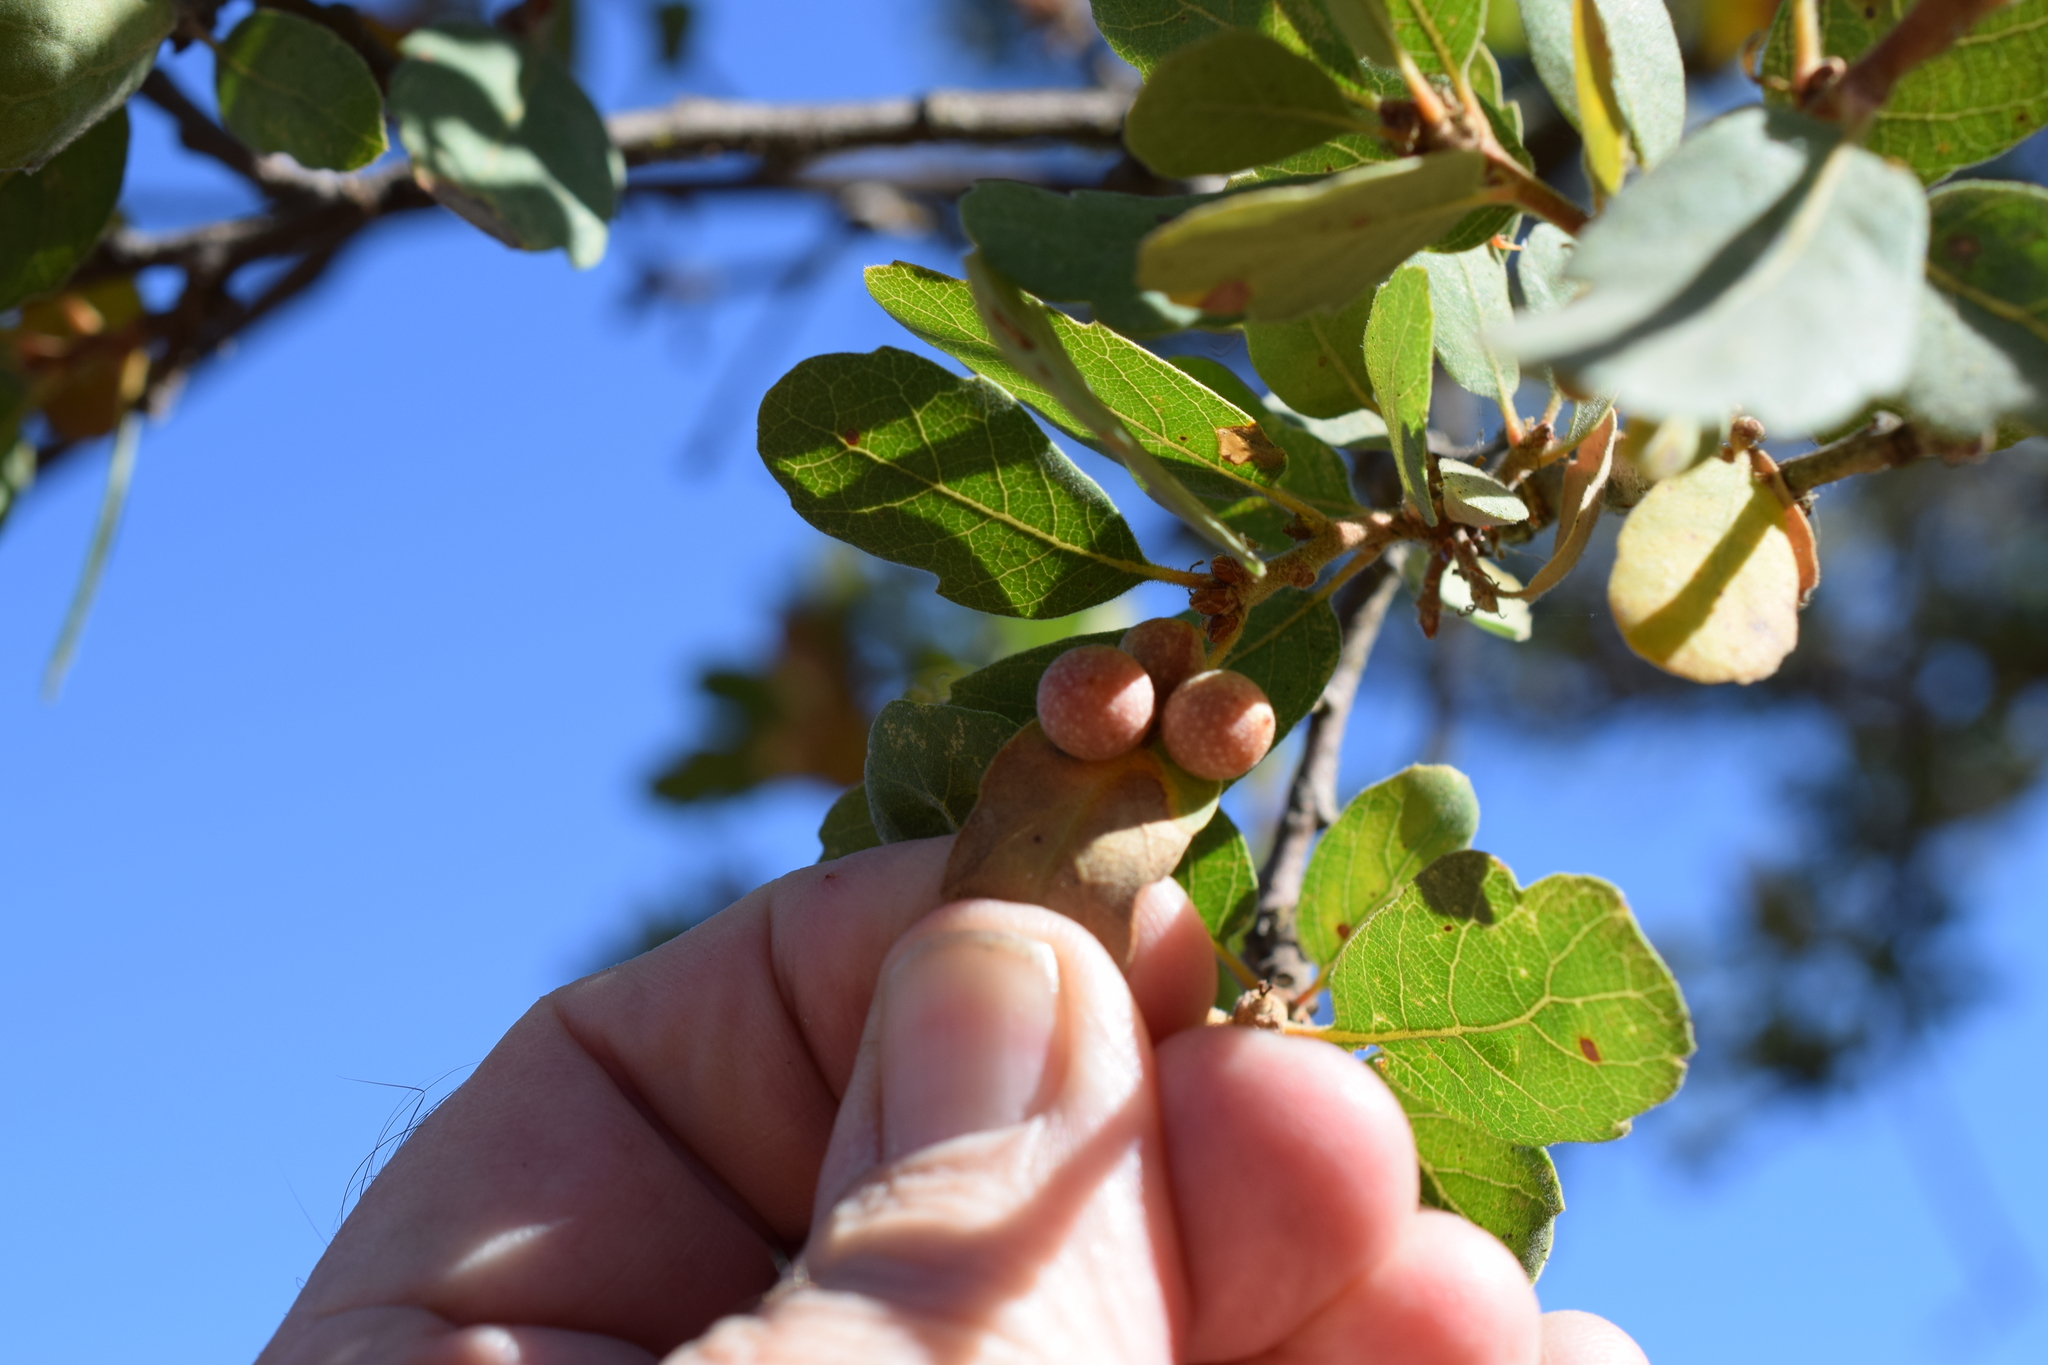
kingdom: Animalia
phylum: Arthropoda
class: Insecta
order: Hymenoptera
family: Cynipidae
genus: Andricus
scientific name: Andricus
